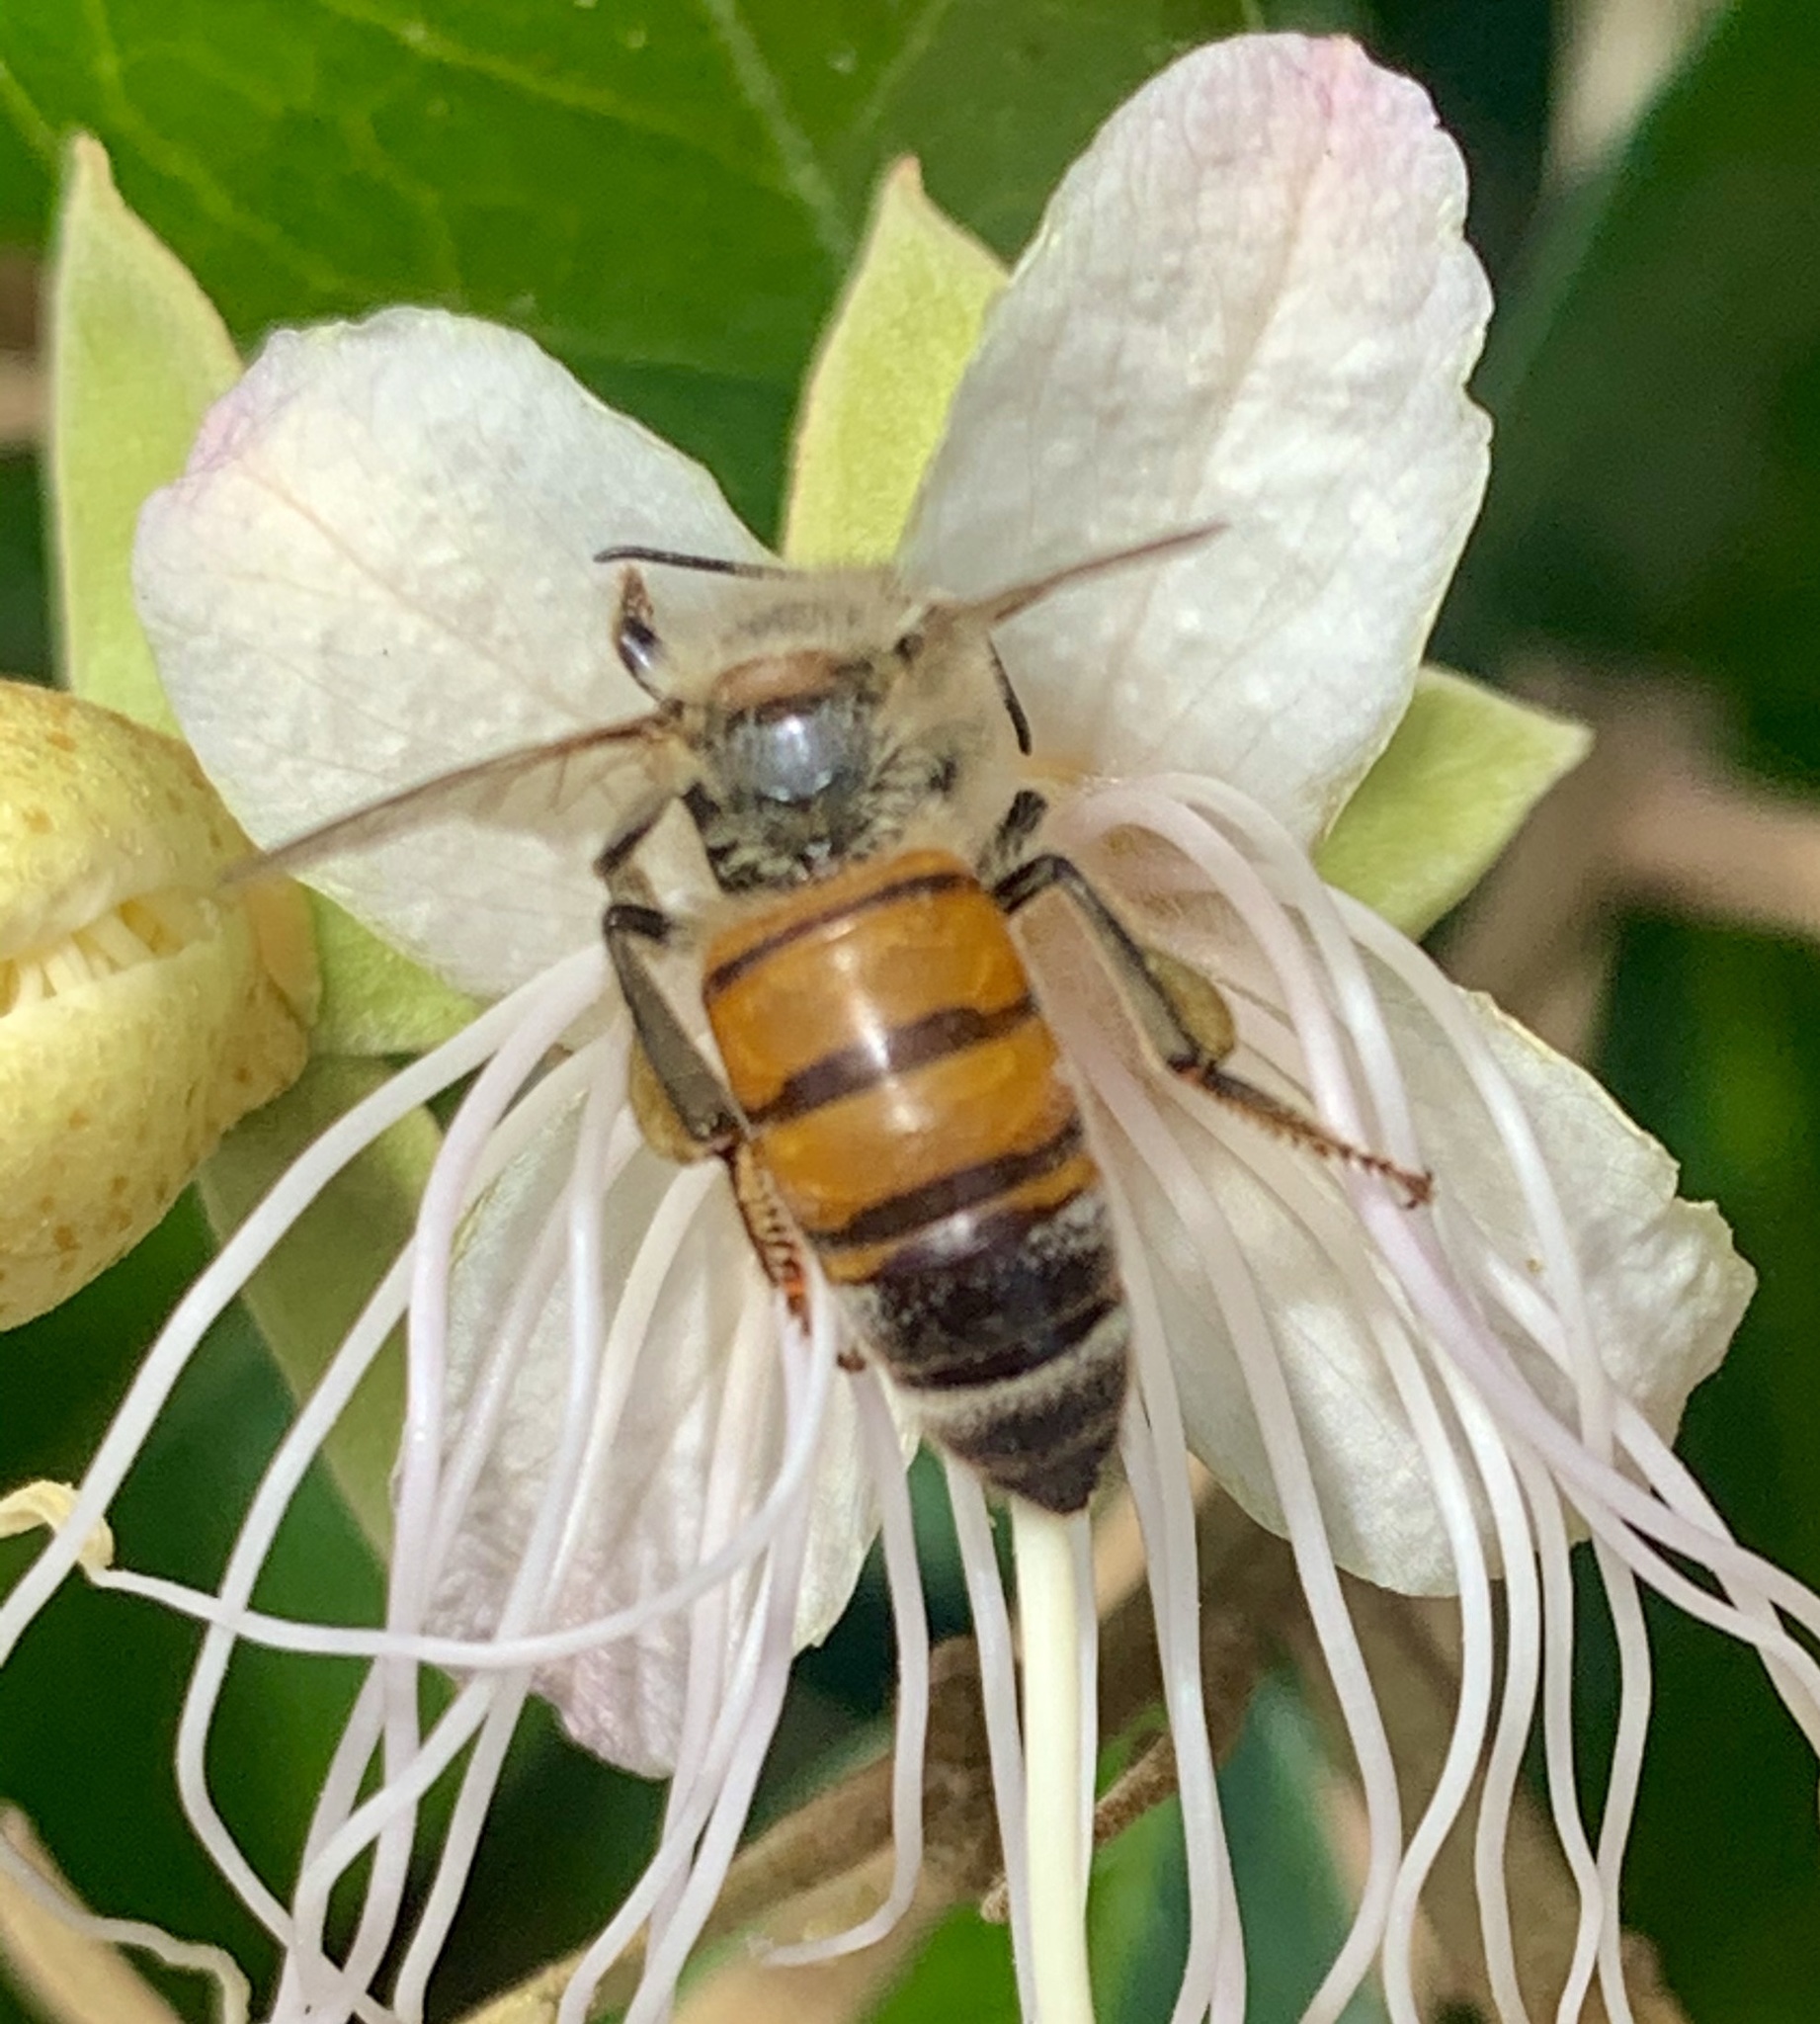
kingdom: Animalia
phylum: Arthropoda
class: Insecta
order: Hymenoptera
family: Apidae
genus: Apis
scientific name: Apis mellifera
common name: Honey bee
